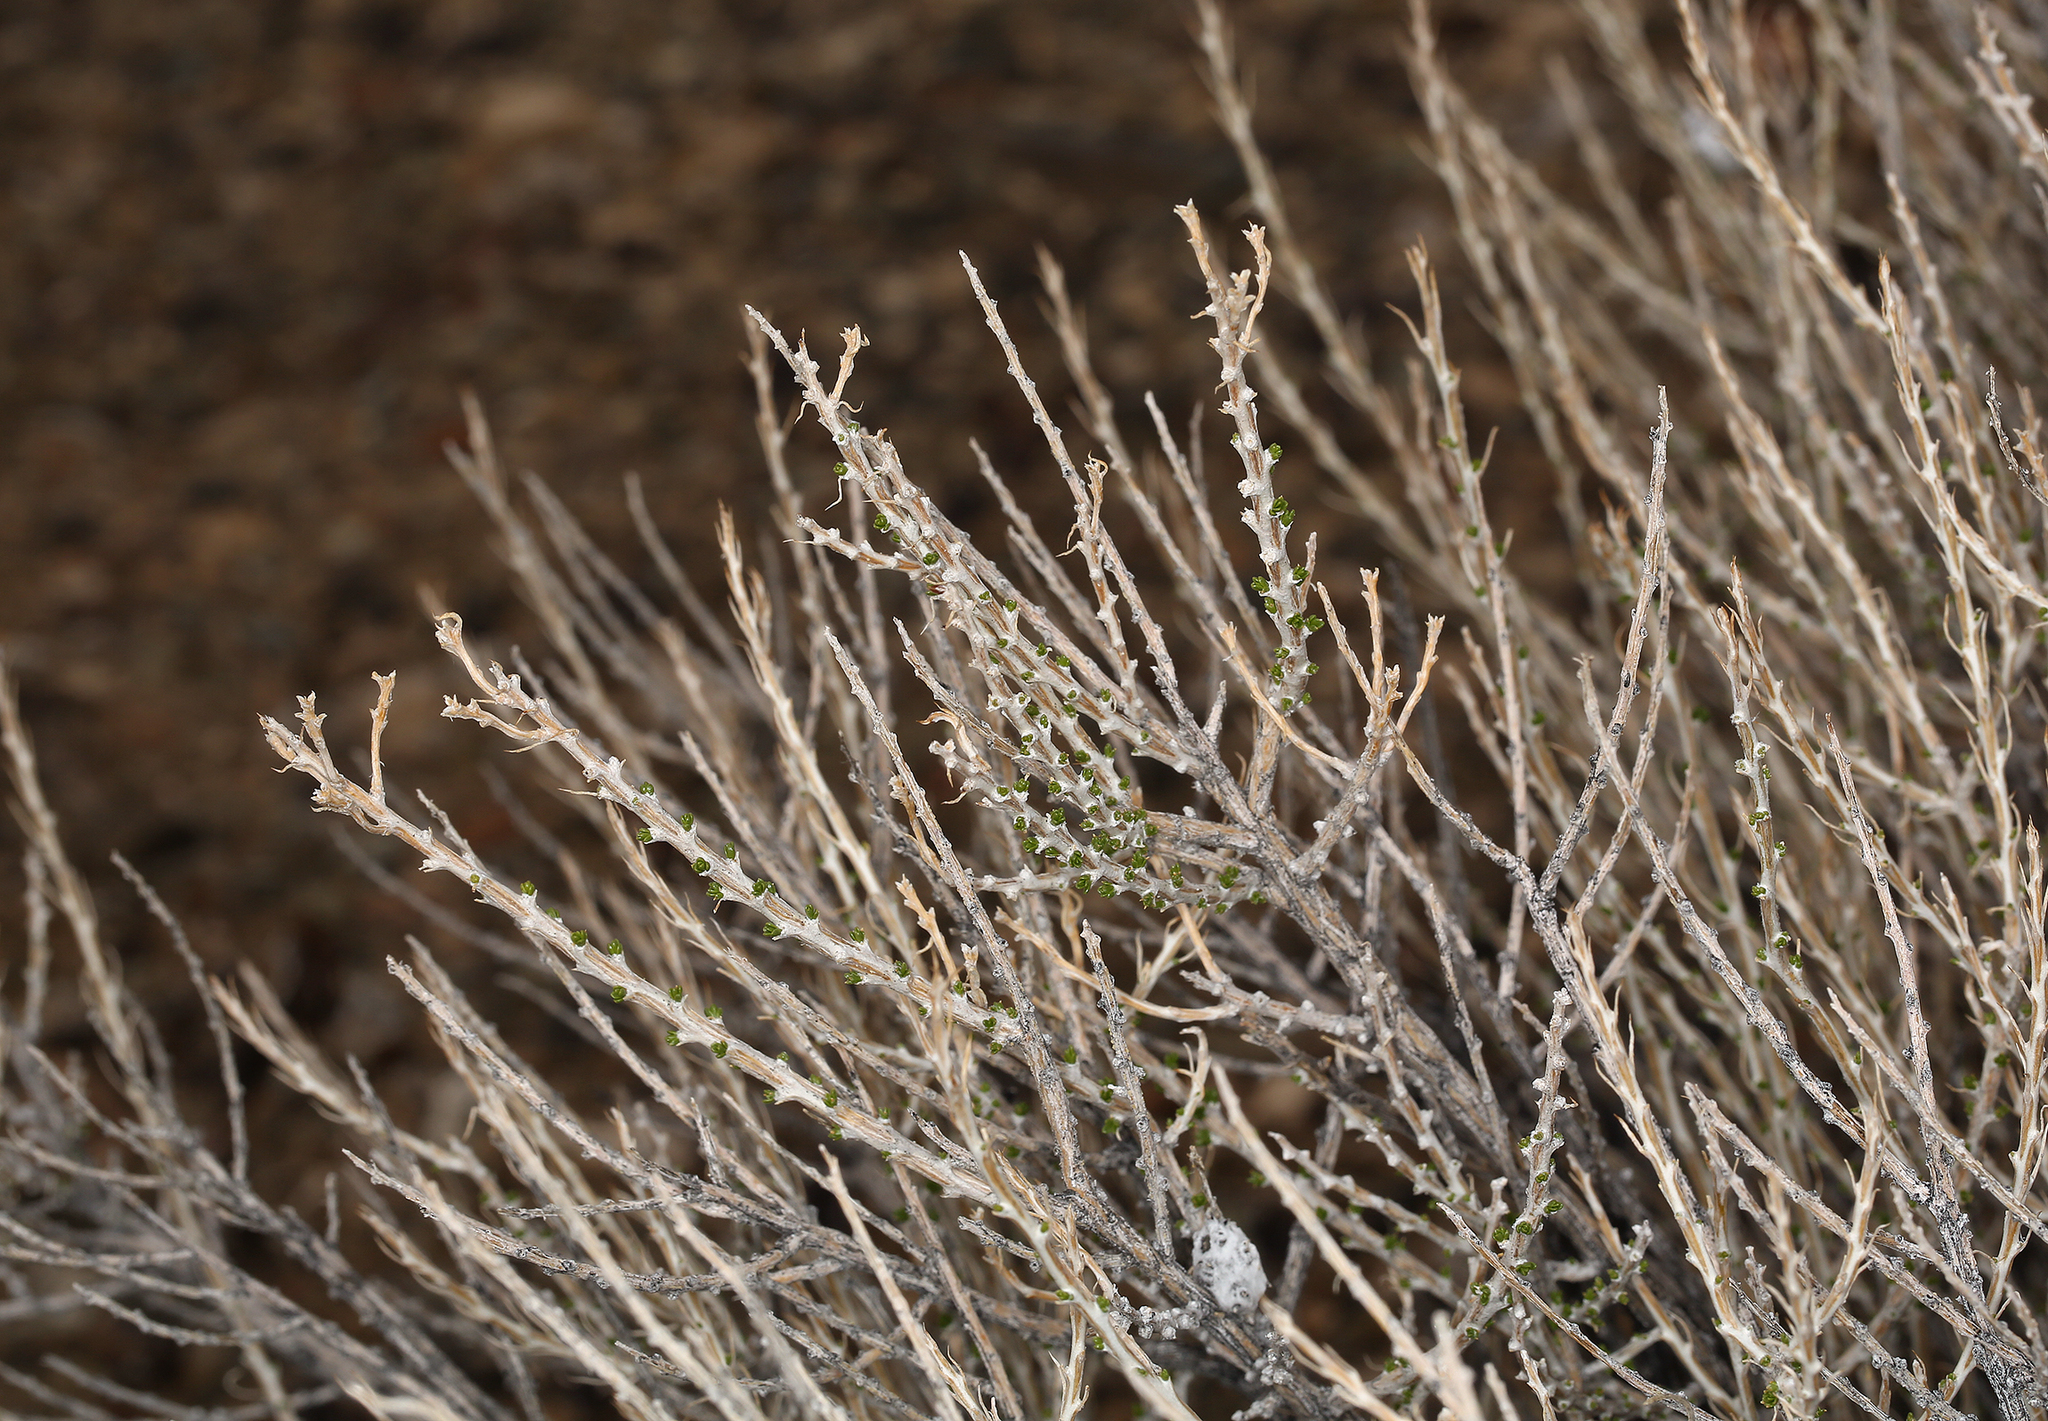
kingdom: Plantae
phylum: Tracheophyta
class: Magnoliopsida
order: Asterales
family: Asteraceae
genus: Tetradymia
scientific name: Tetradymia glabrata
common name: Smooth tetradymia
